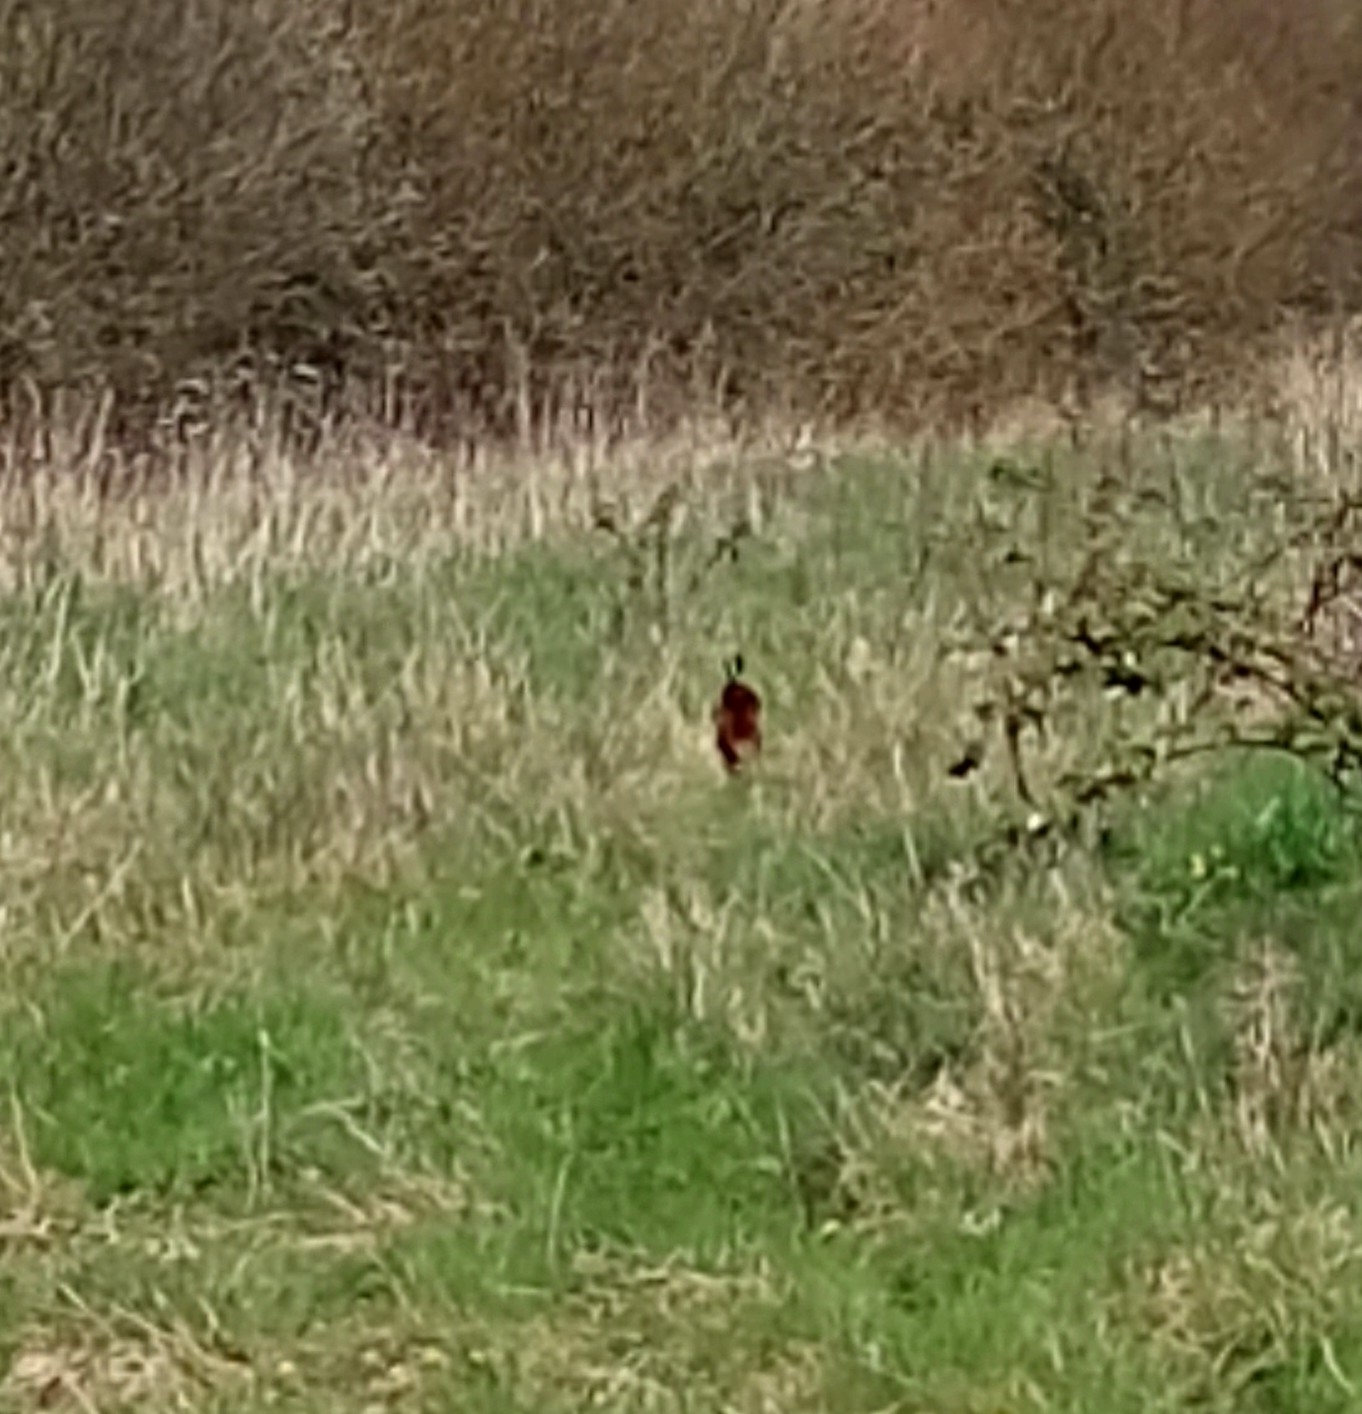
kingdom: Animalia
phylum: Chordata
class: Aves
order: Galliformes
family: Phasianidae
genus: Phasianus
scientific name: Phasianus colchicus
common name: Common pheasant
